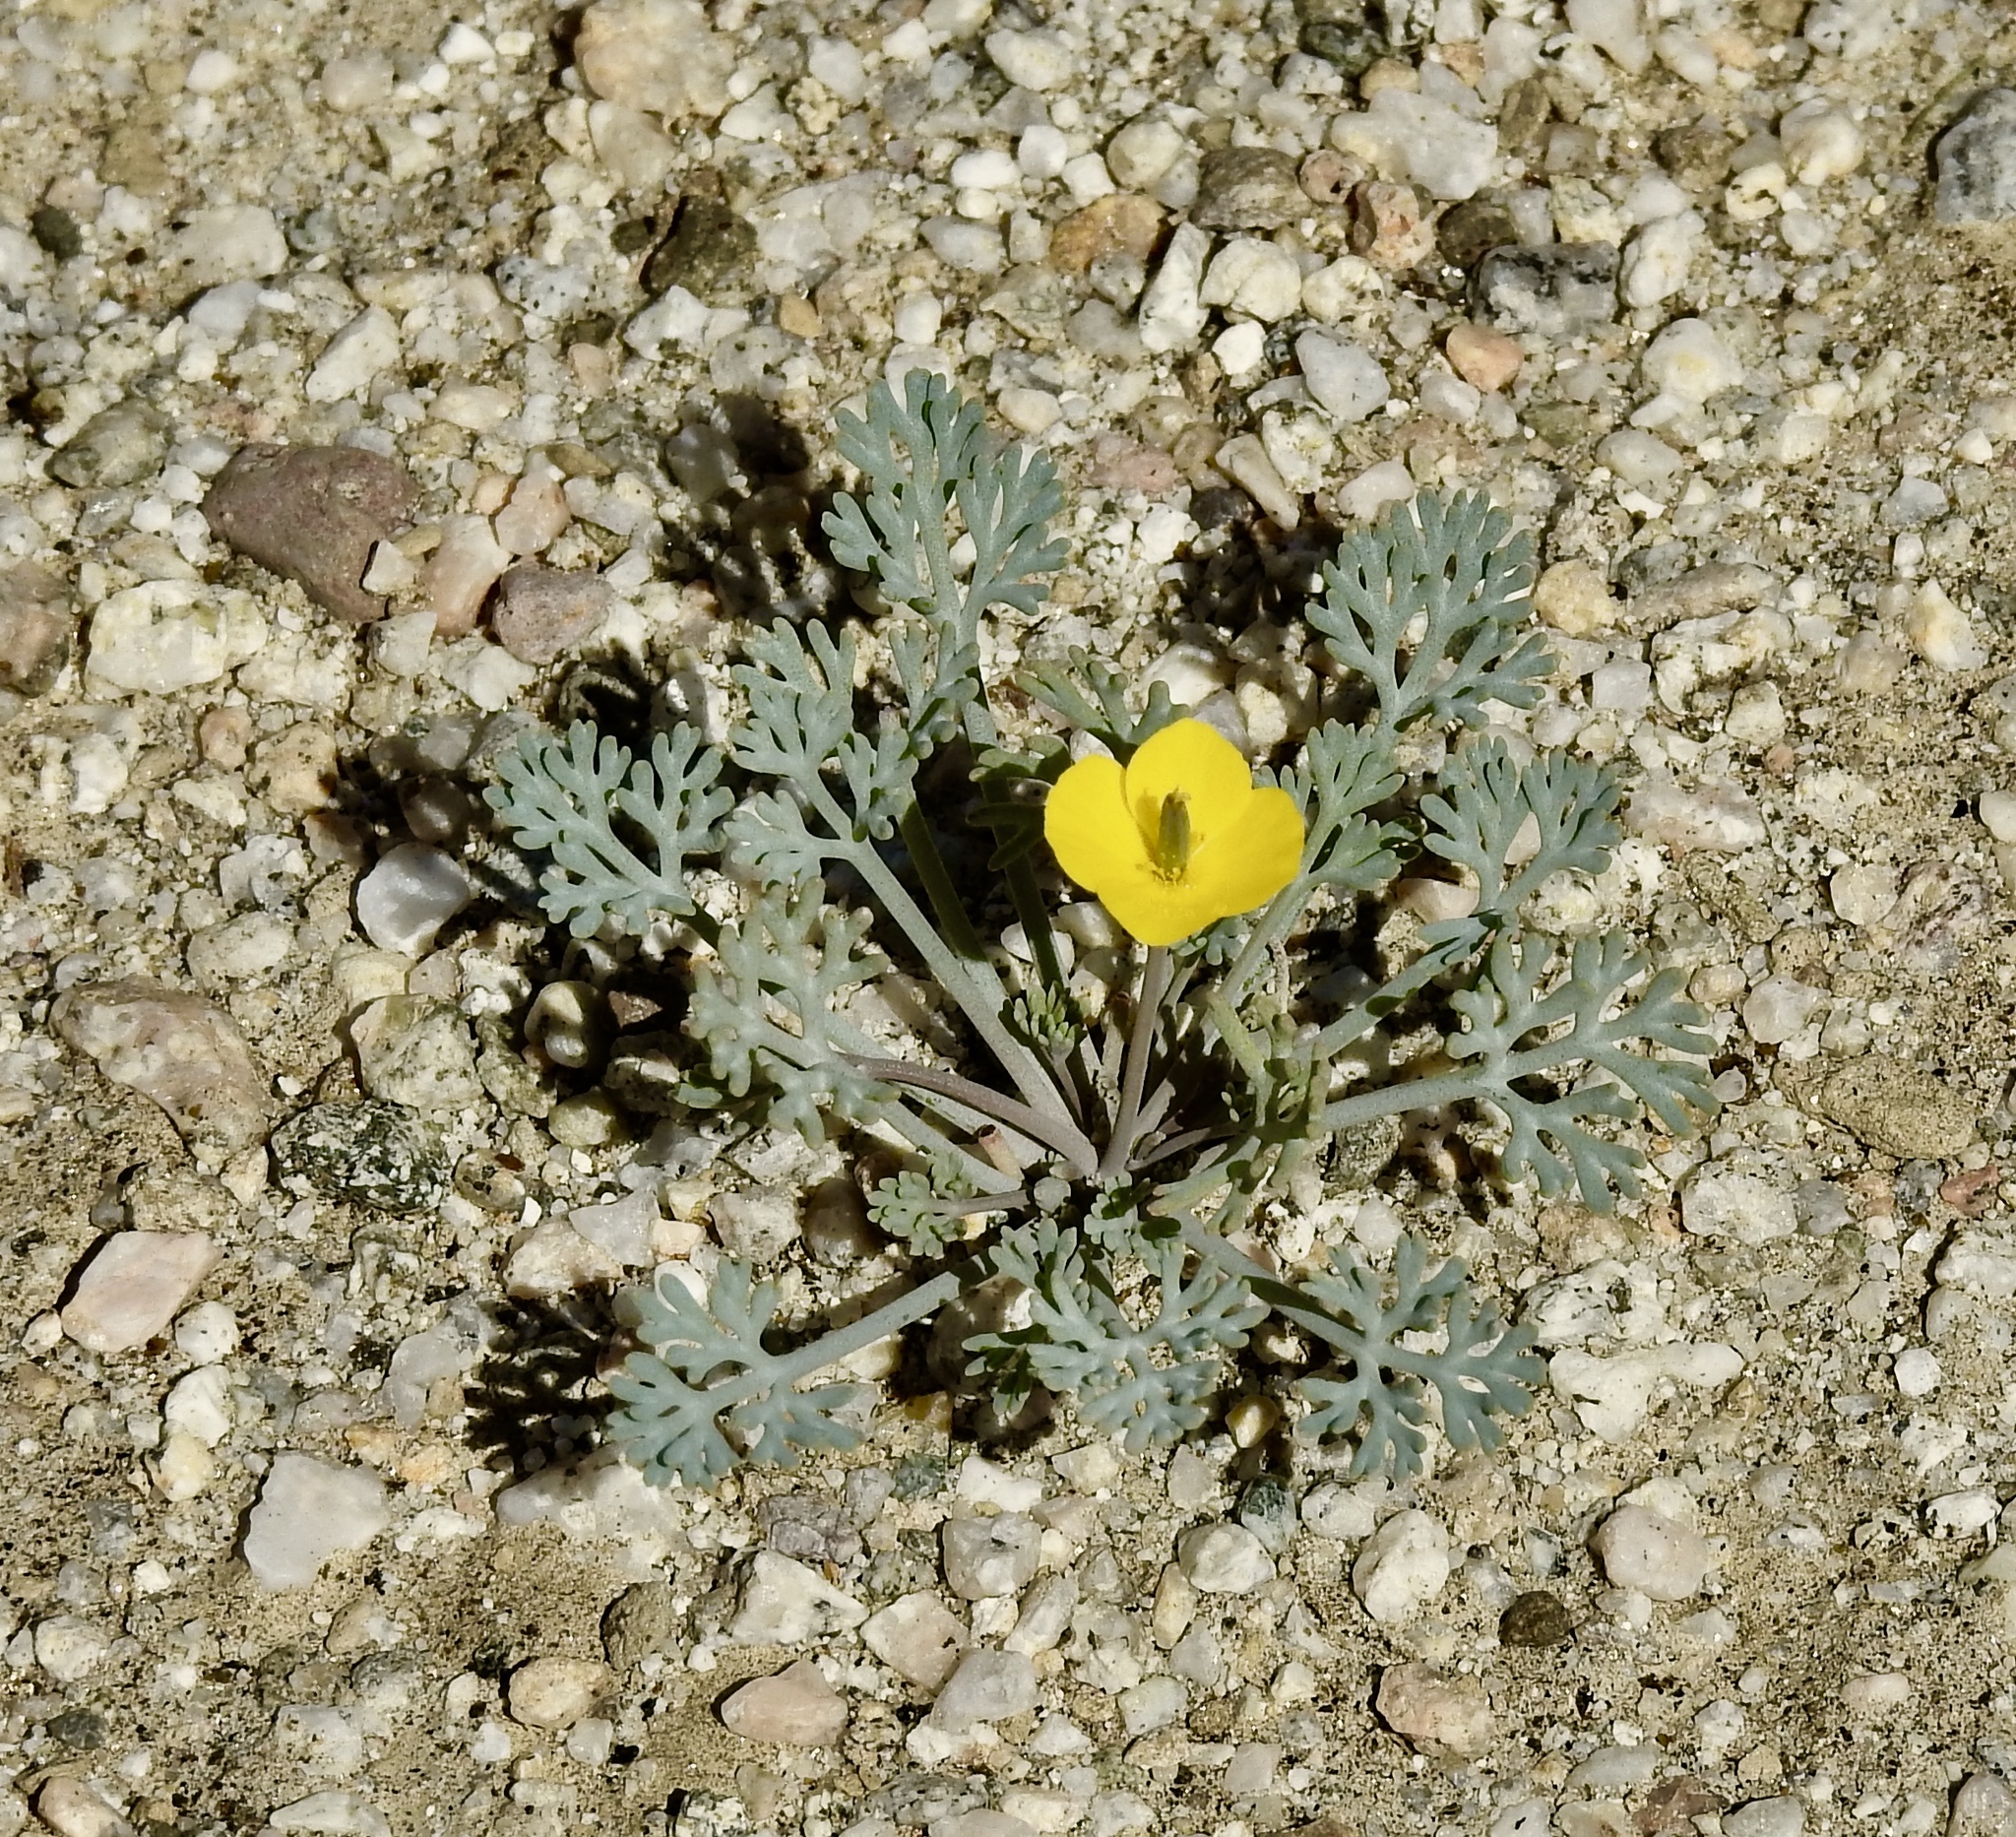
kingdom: Plantae
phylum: Tracheophyta
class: Magnoliopsida
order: Ranunculales
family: Papaveraceae
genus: Eschscholzia
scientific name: Eschscholzia minutiflora
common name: Small-flower california-poppy
